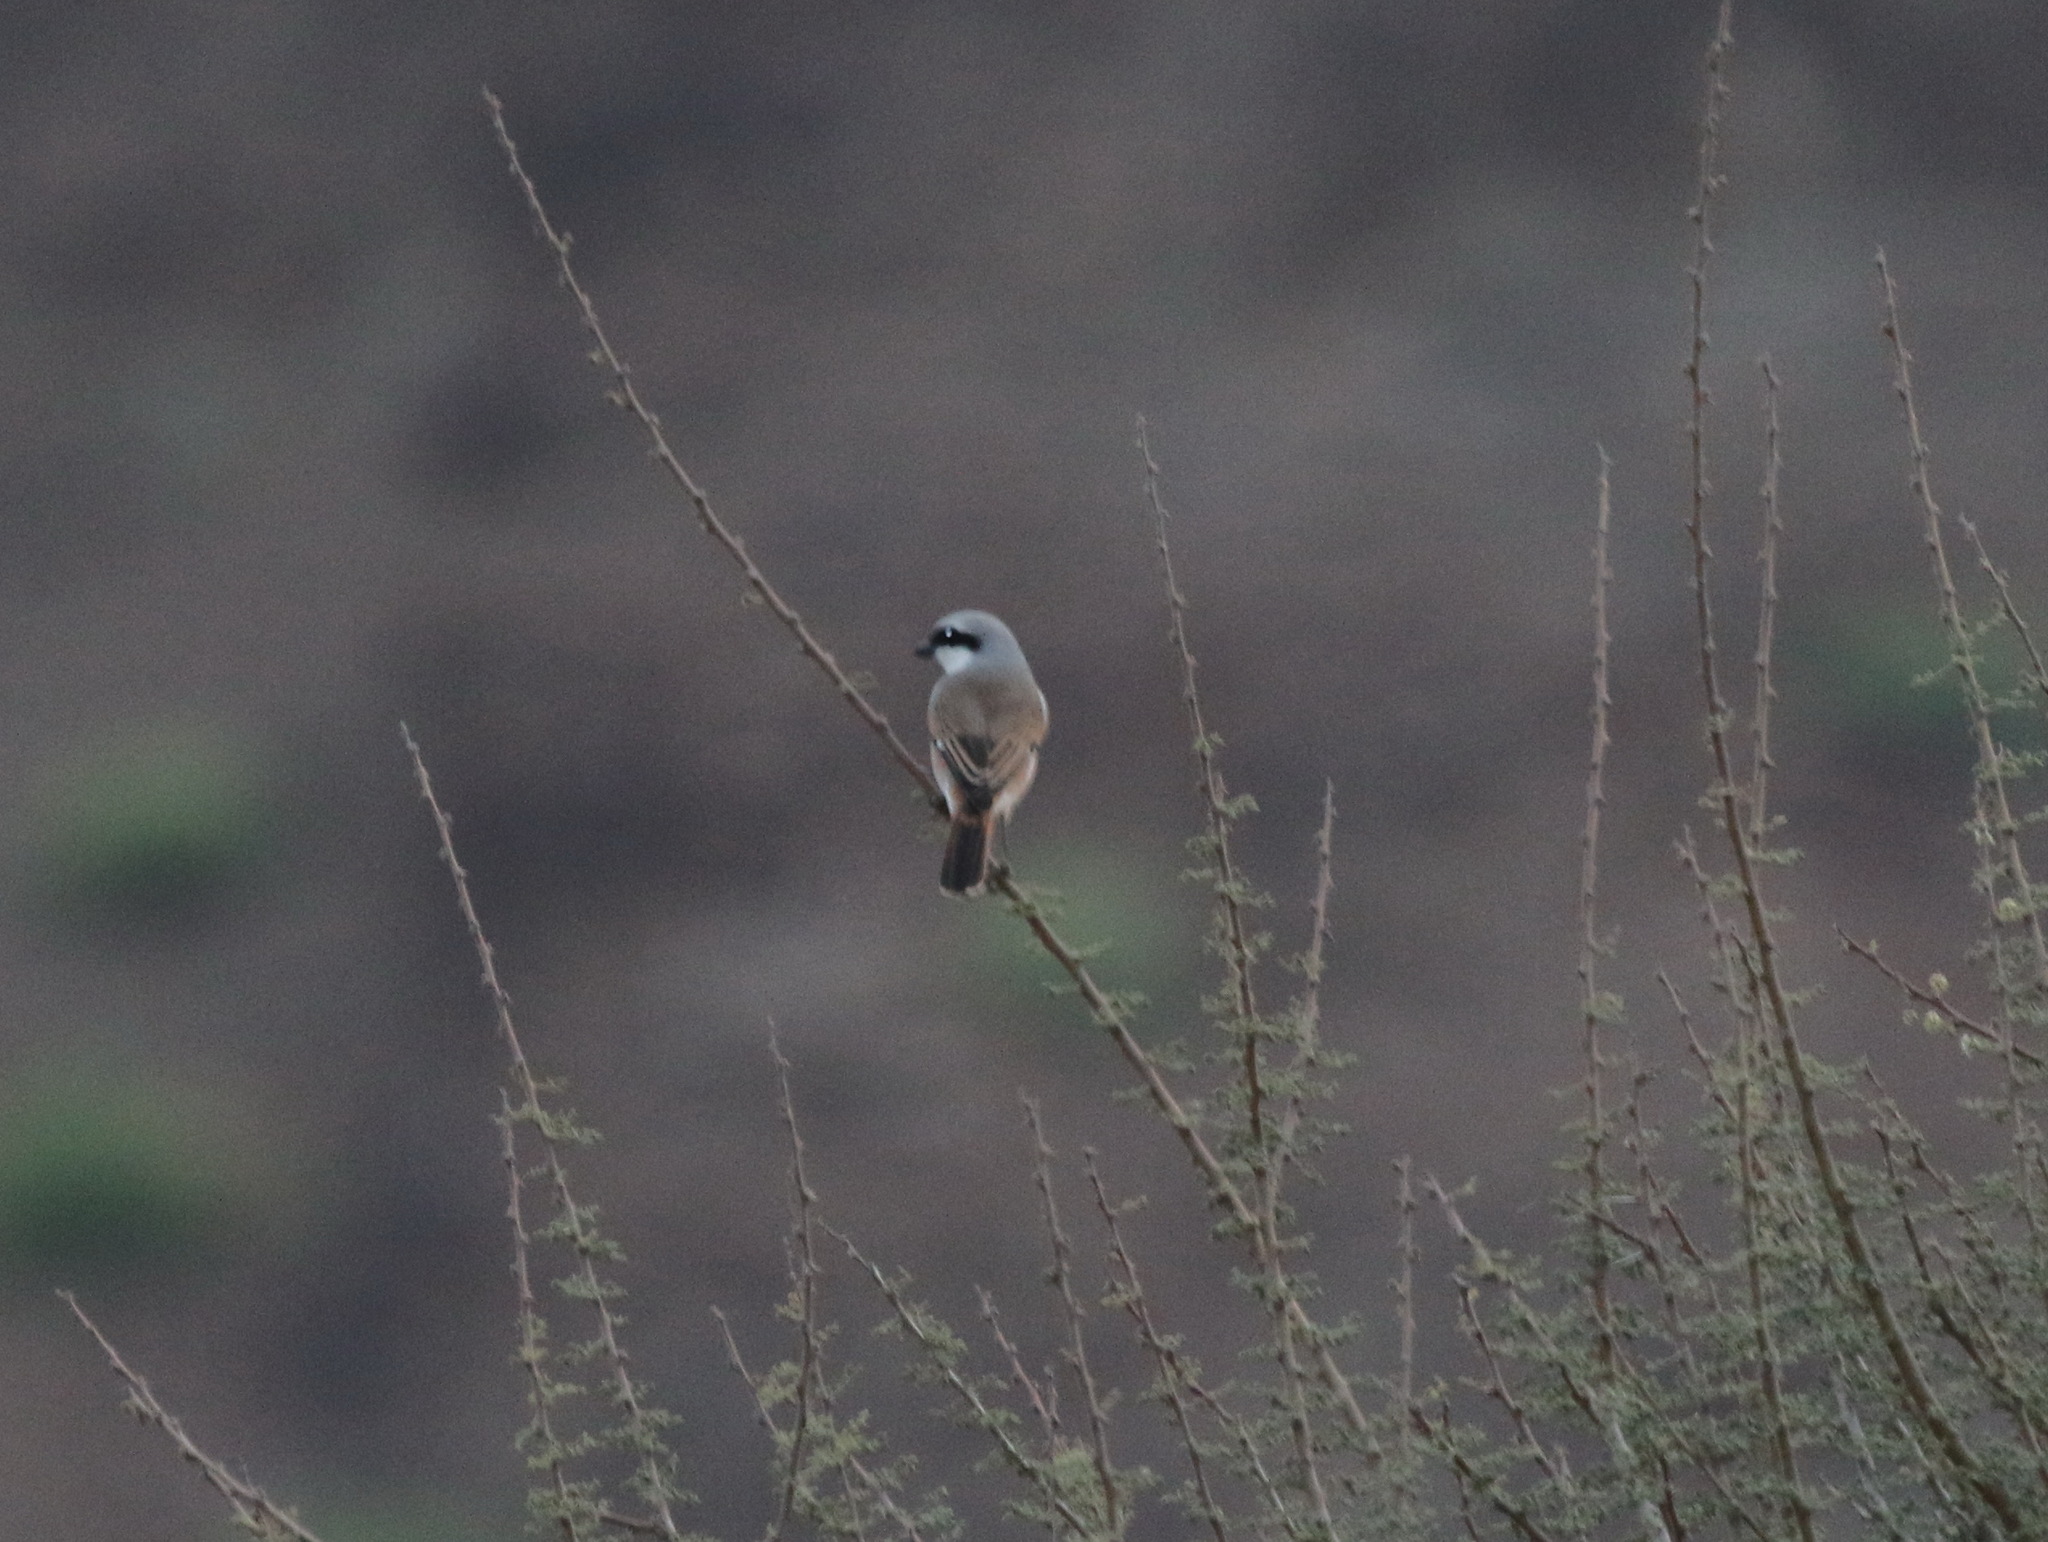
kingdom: Animalia
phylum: Chordata
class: Aves
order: Passeriformes
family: Laniidae
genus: Lanius
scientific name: Lanius collurio
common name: Red-backed shrike
